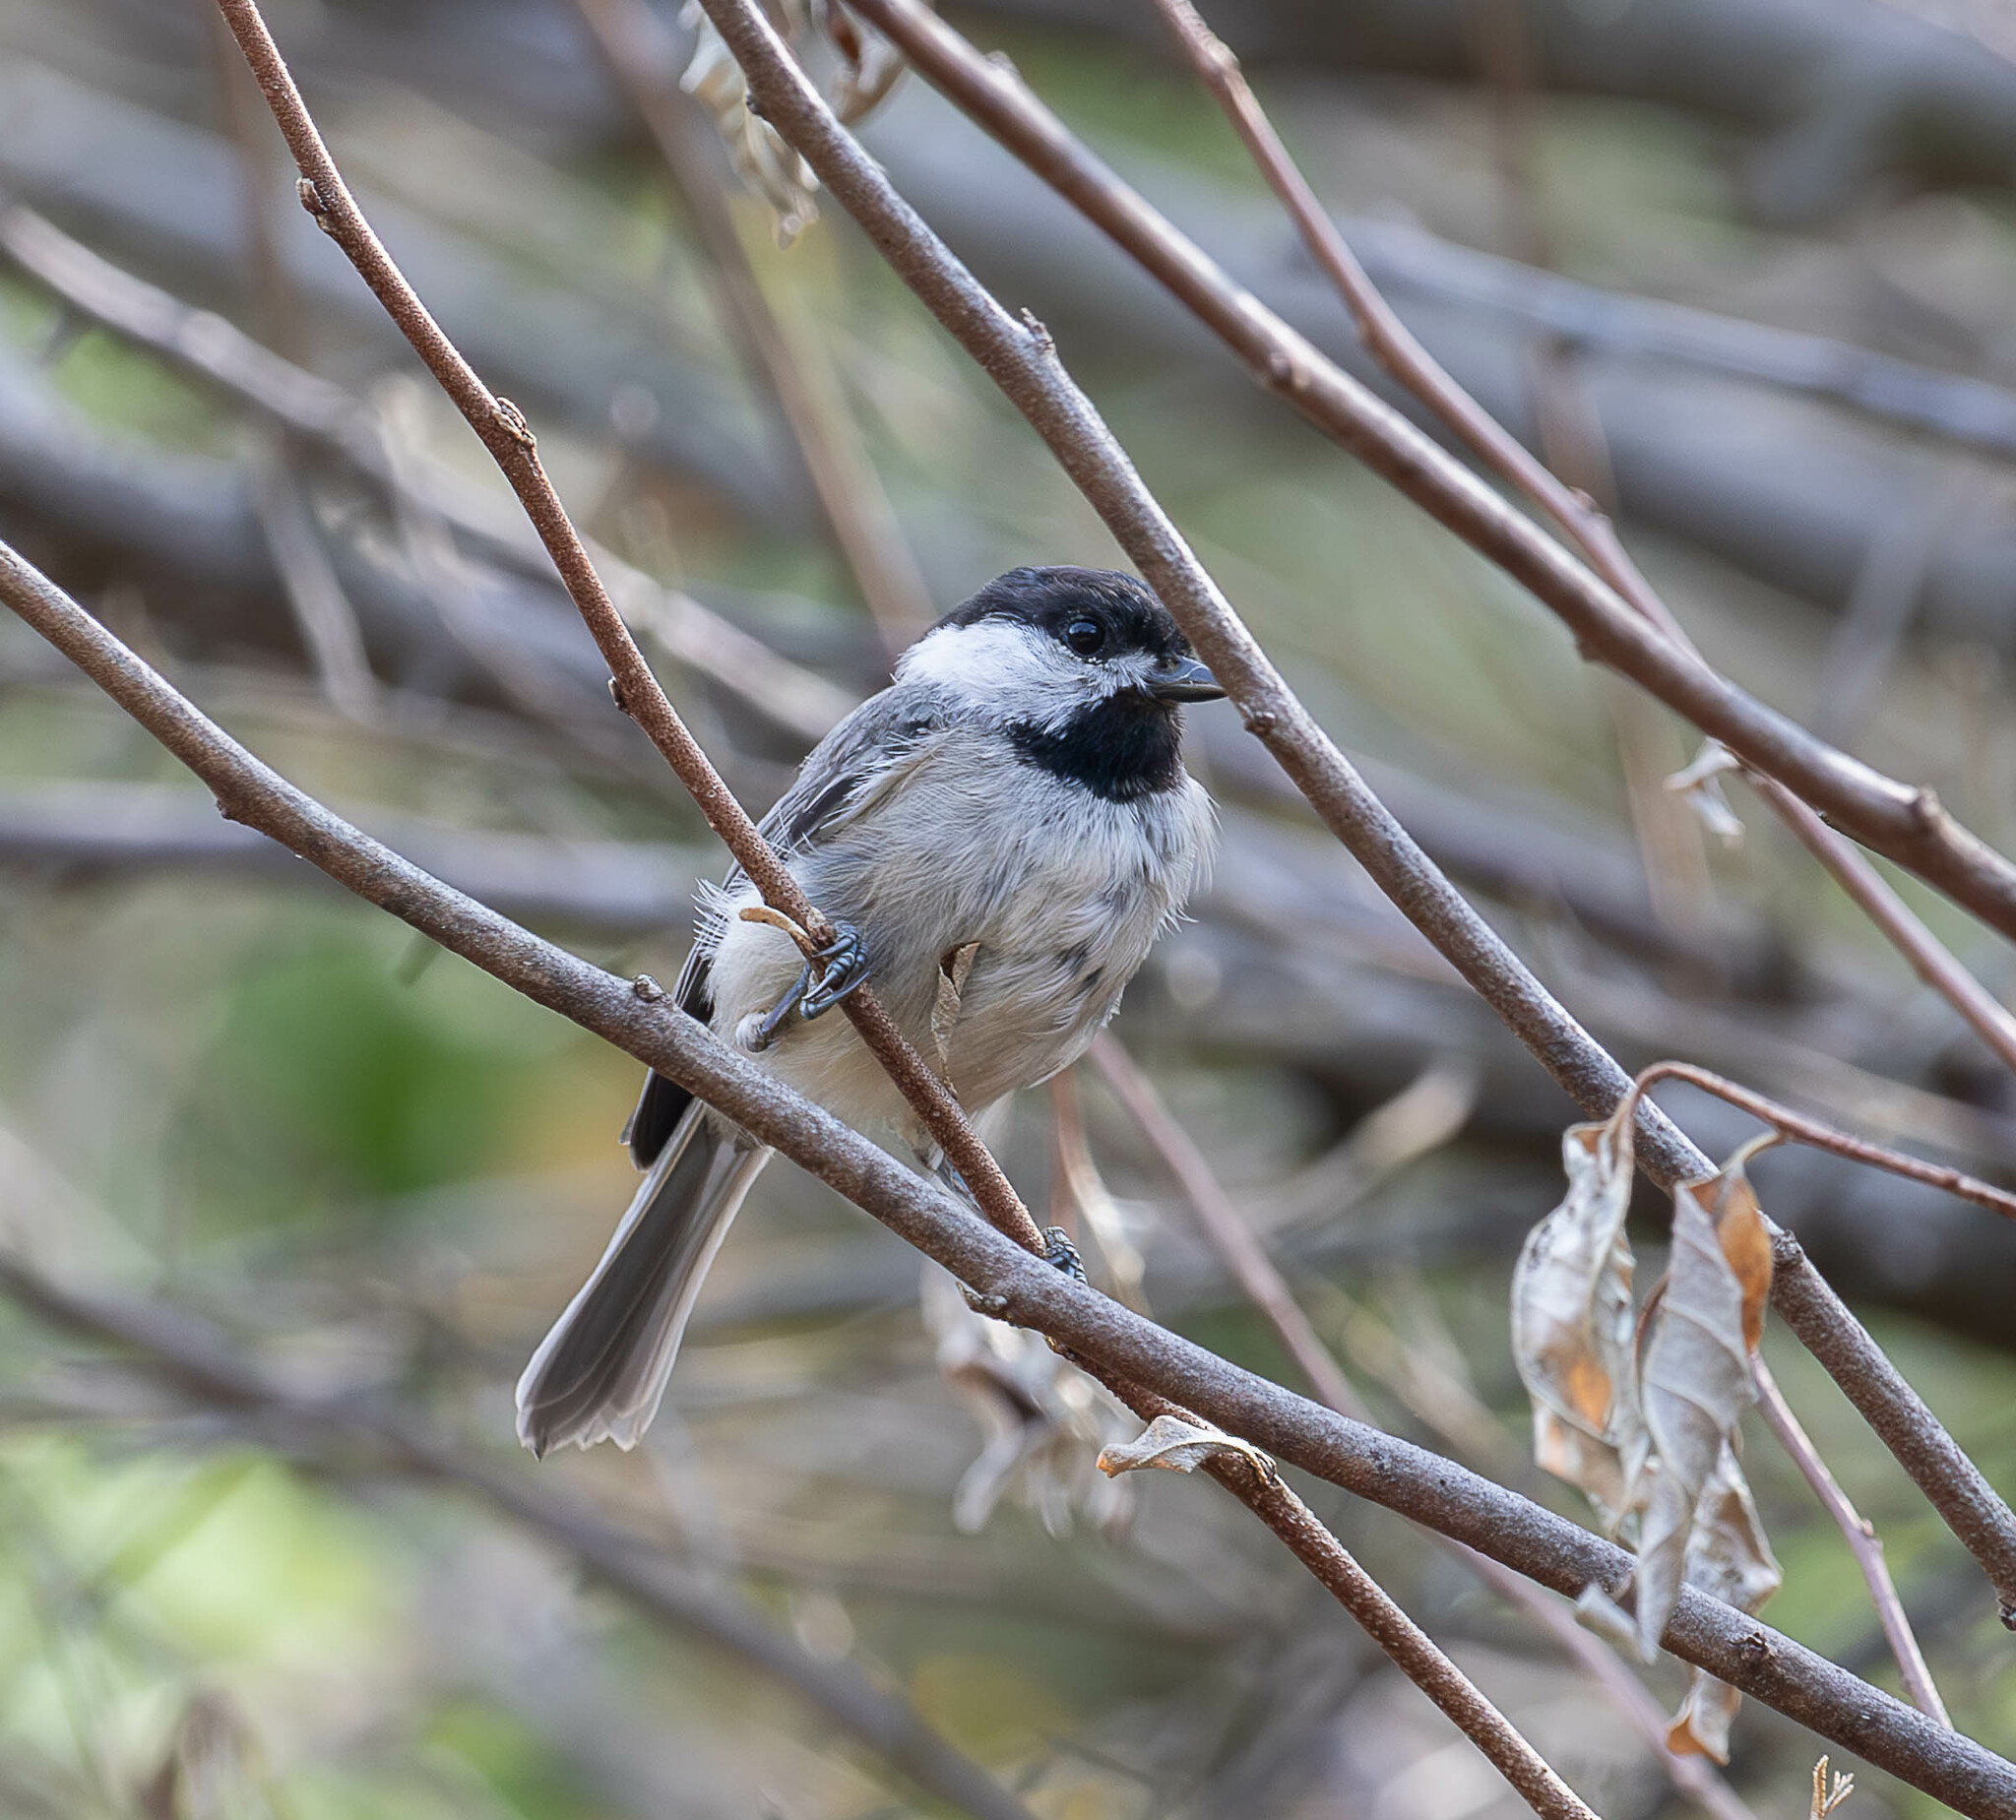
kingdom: Animalia
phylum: Chordata
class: Aves
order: Passeriformes
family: Paridae
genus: Poecile
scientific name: Poecile carolinensis
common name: Carolina chickadee
